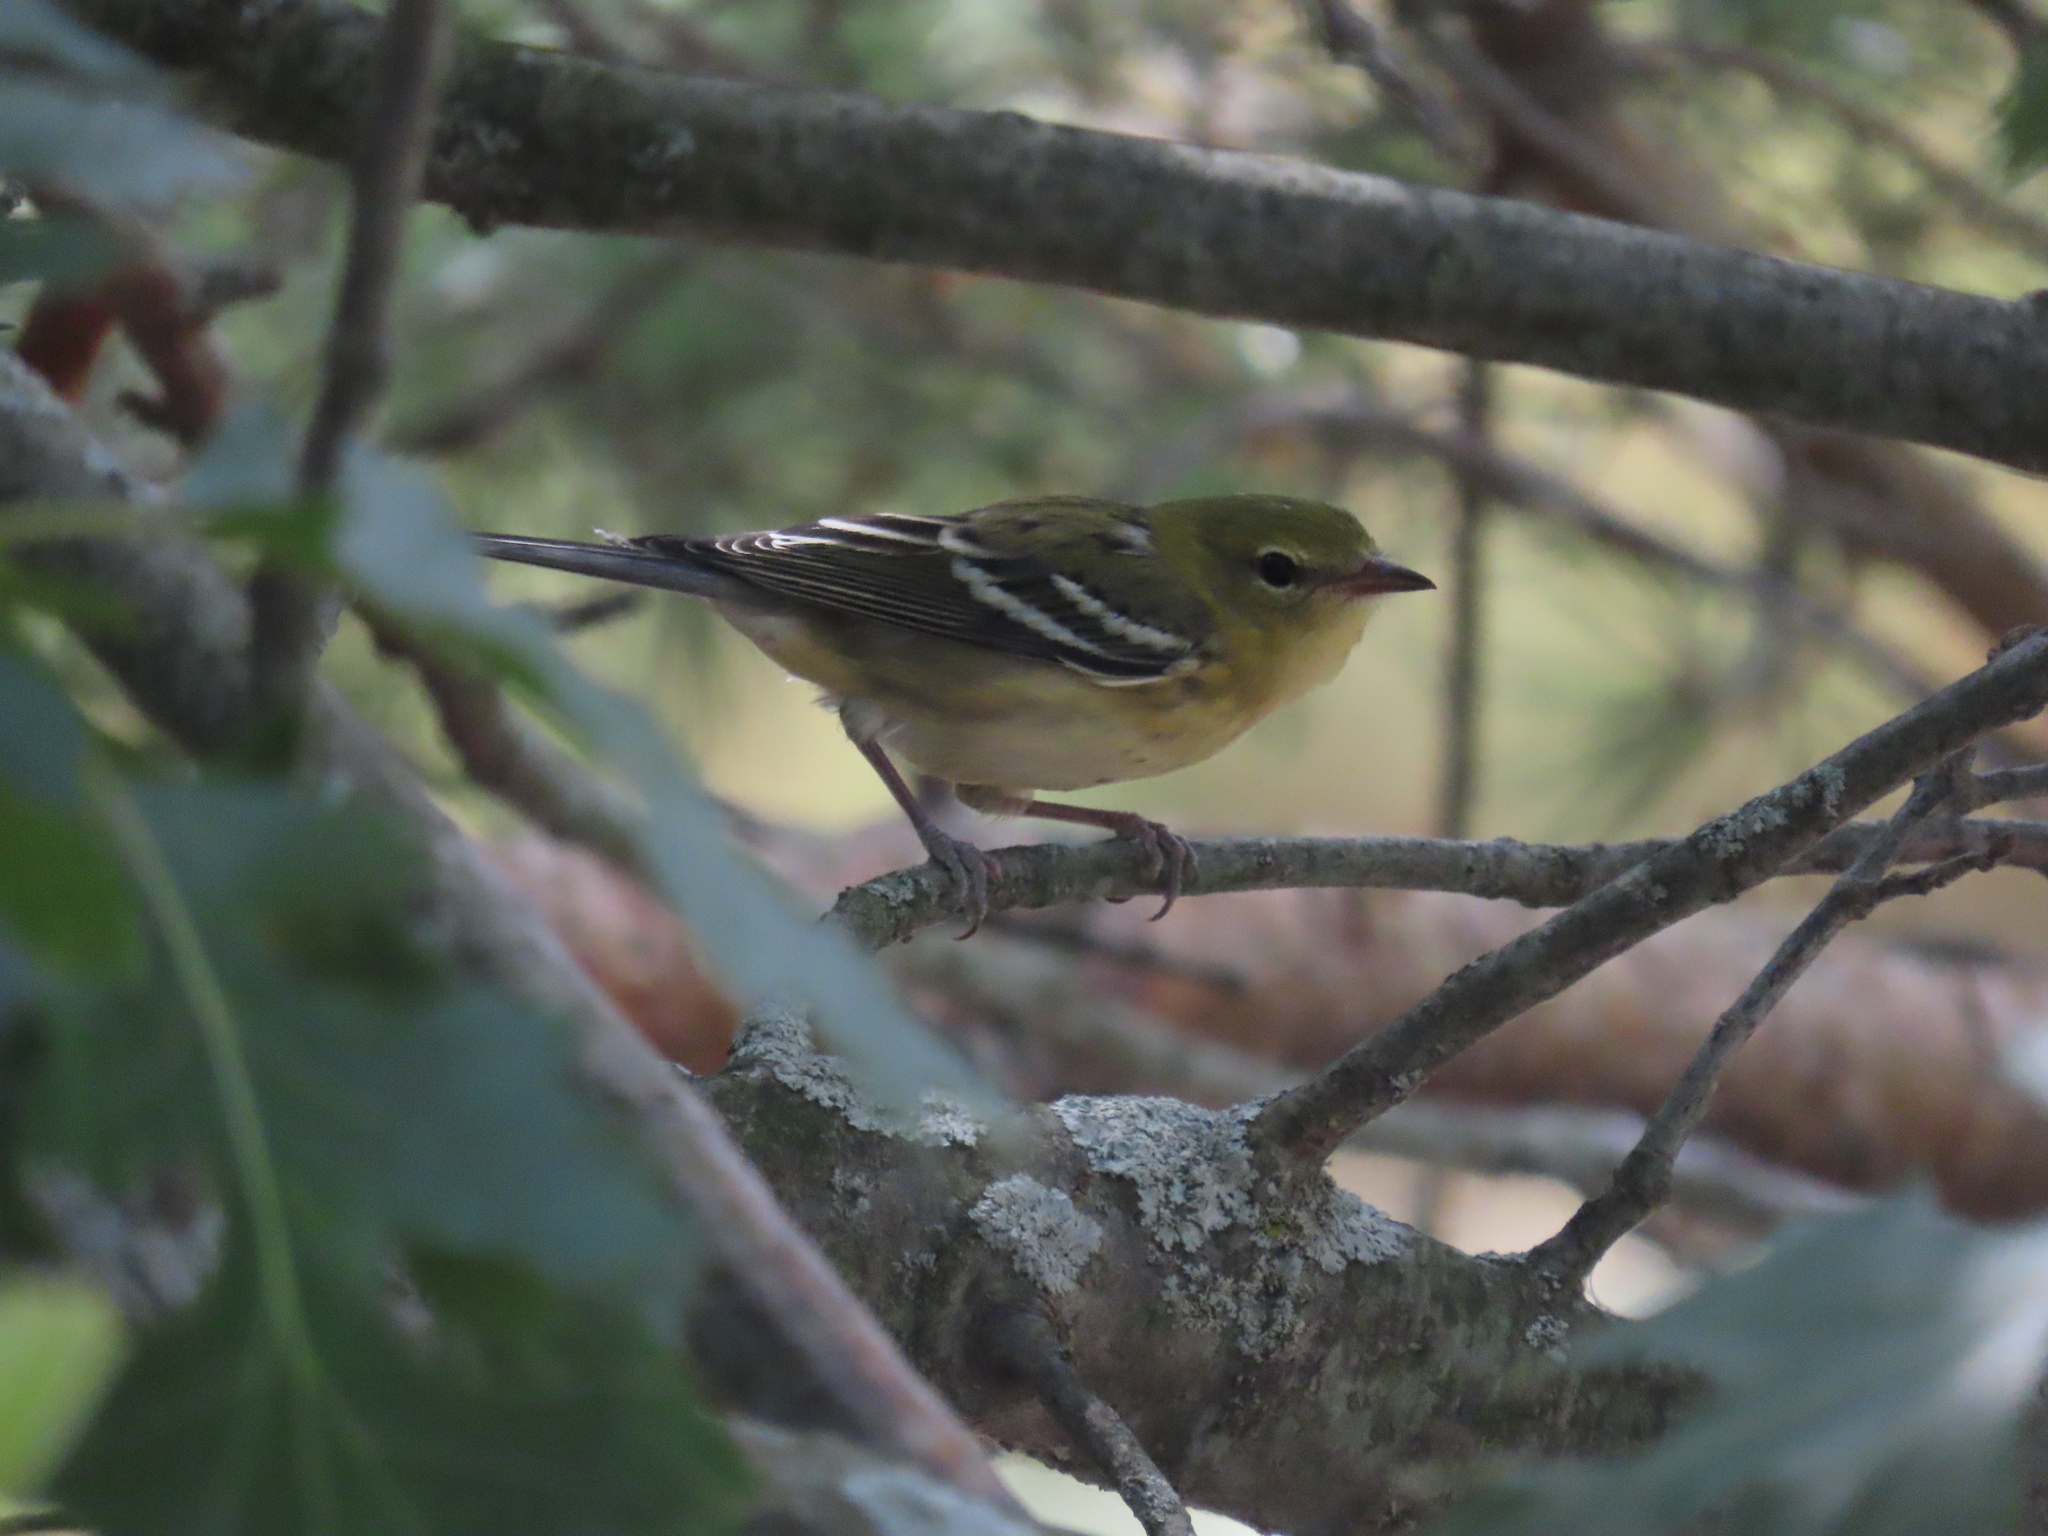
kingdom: Animalia
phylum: Chordata
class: Aves
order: Passeriformes
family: Parulidae
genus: Setophaga
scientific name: Setophaga castanea
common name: Bay-breasted warbler
